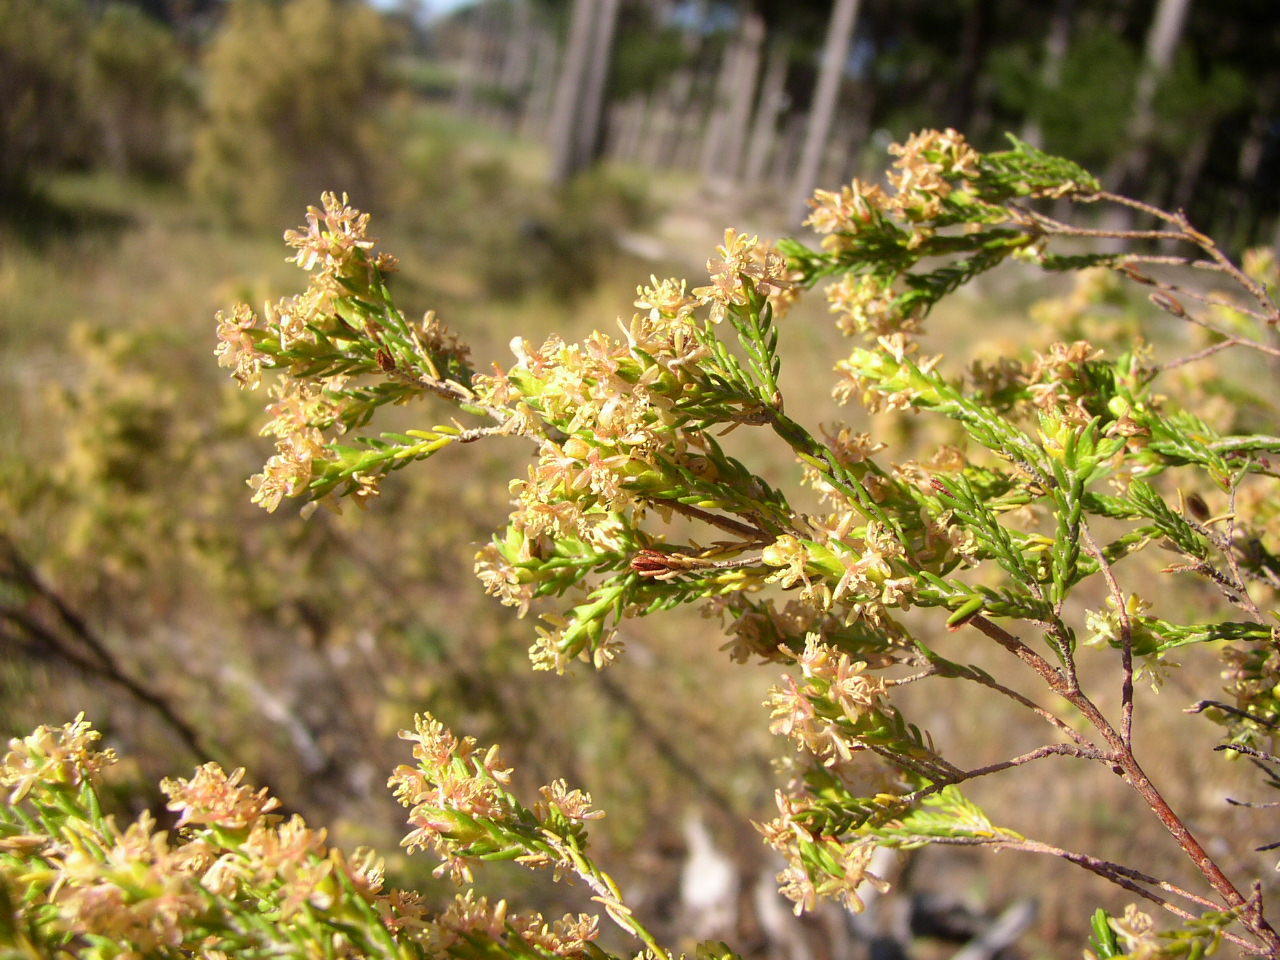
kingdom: Plantae
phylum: Tracheophyta
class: Magnoliopsida
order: Malvales
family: Thymelaeaceae
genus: Passerina
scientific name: Passerina corymbosa
